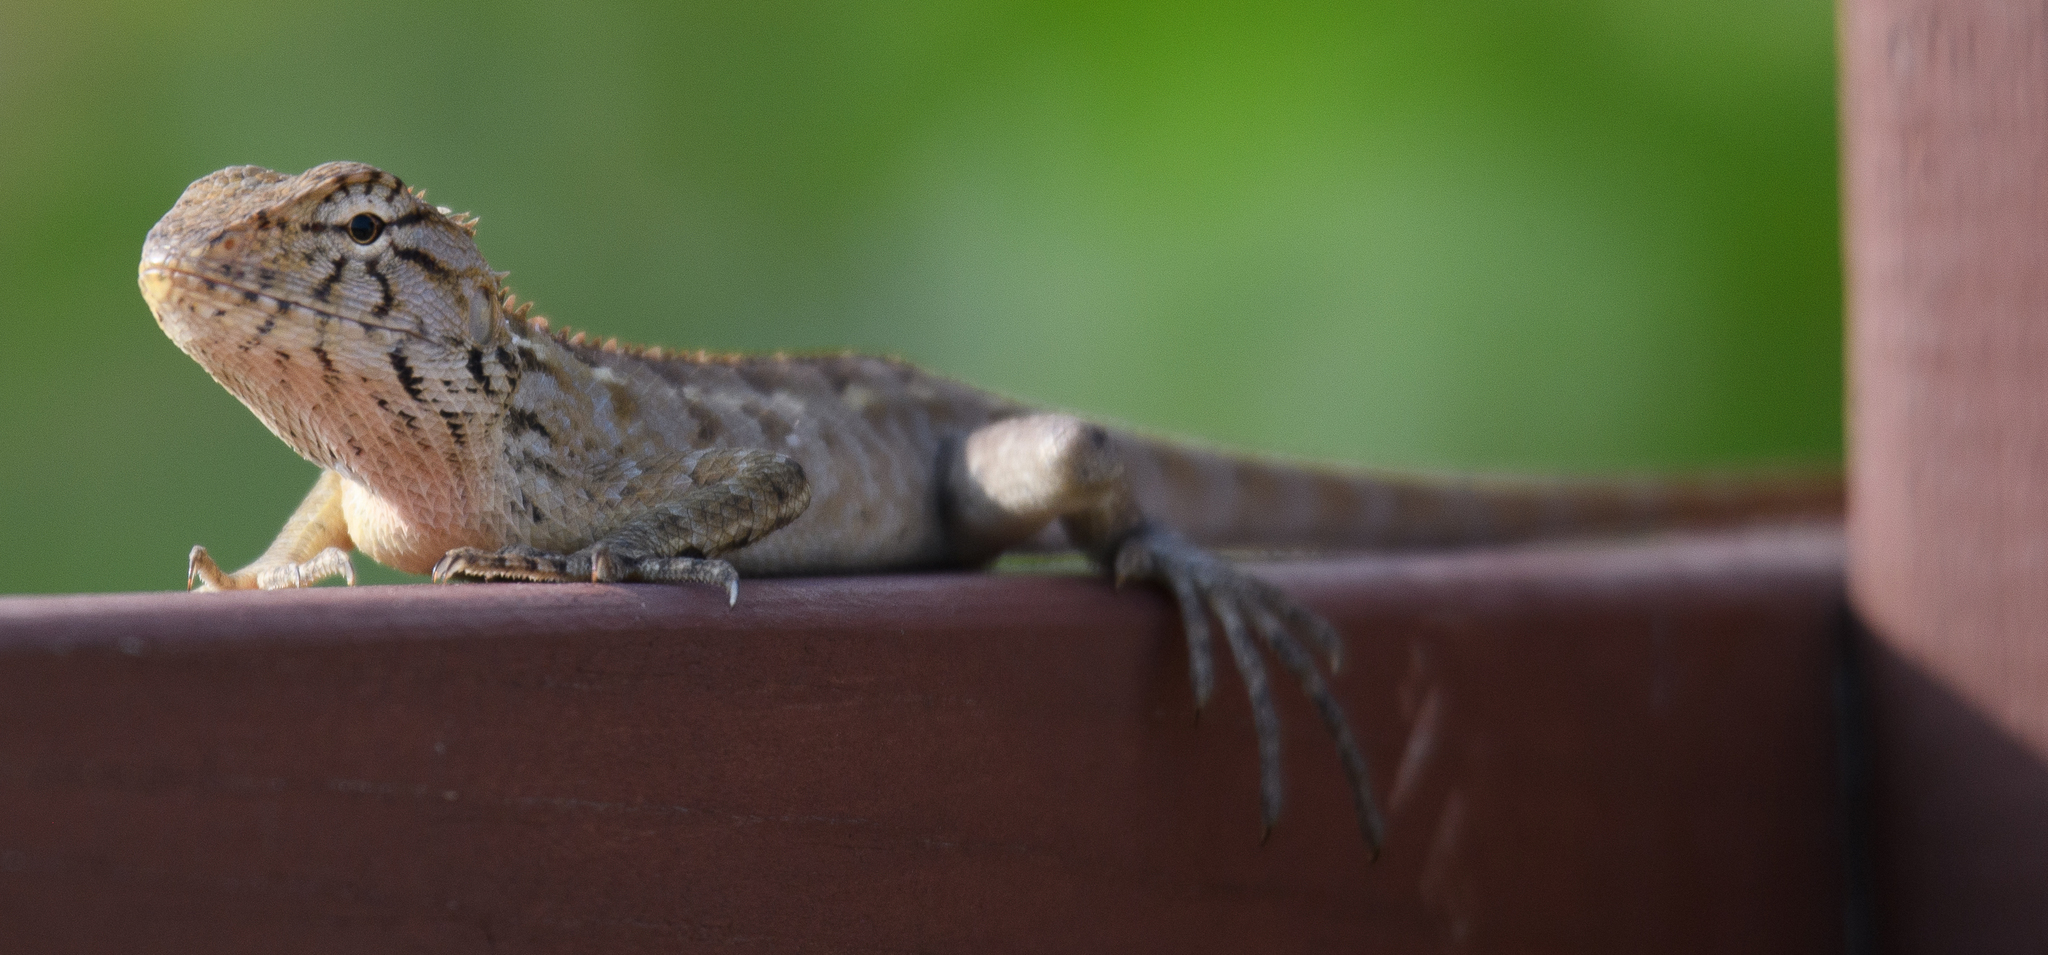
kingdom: Animalia
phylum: Chordata
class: Squamata
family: Agamidae
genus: Calotes
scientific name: Calotes versicolor
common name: Oriental garden lizard
